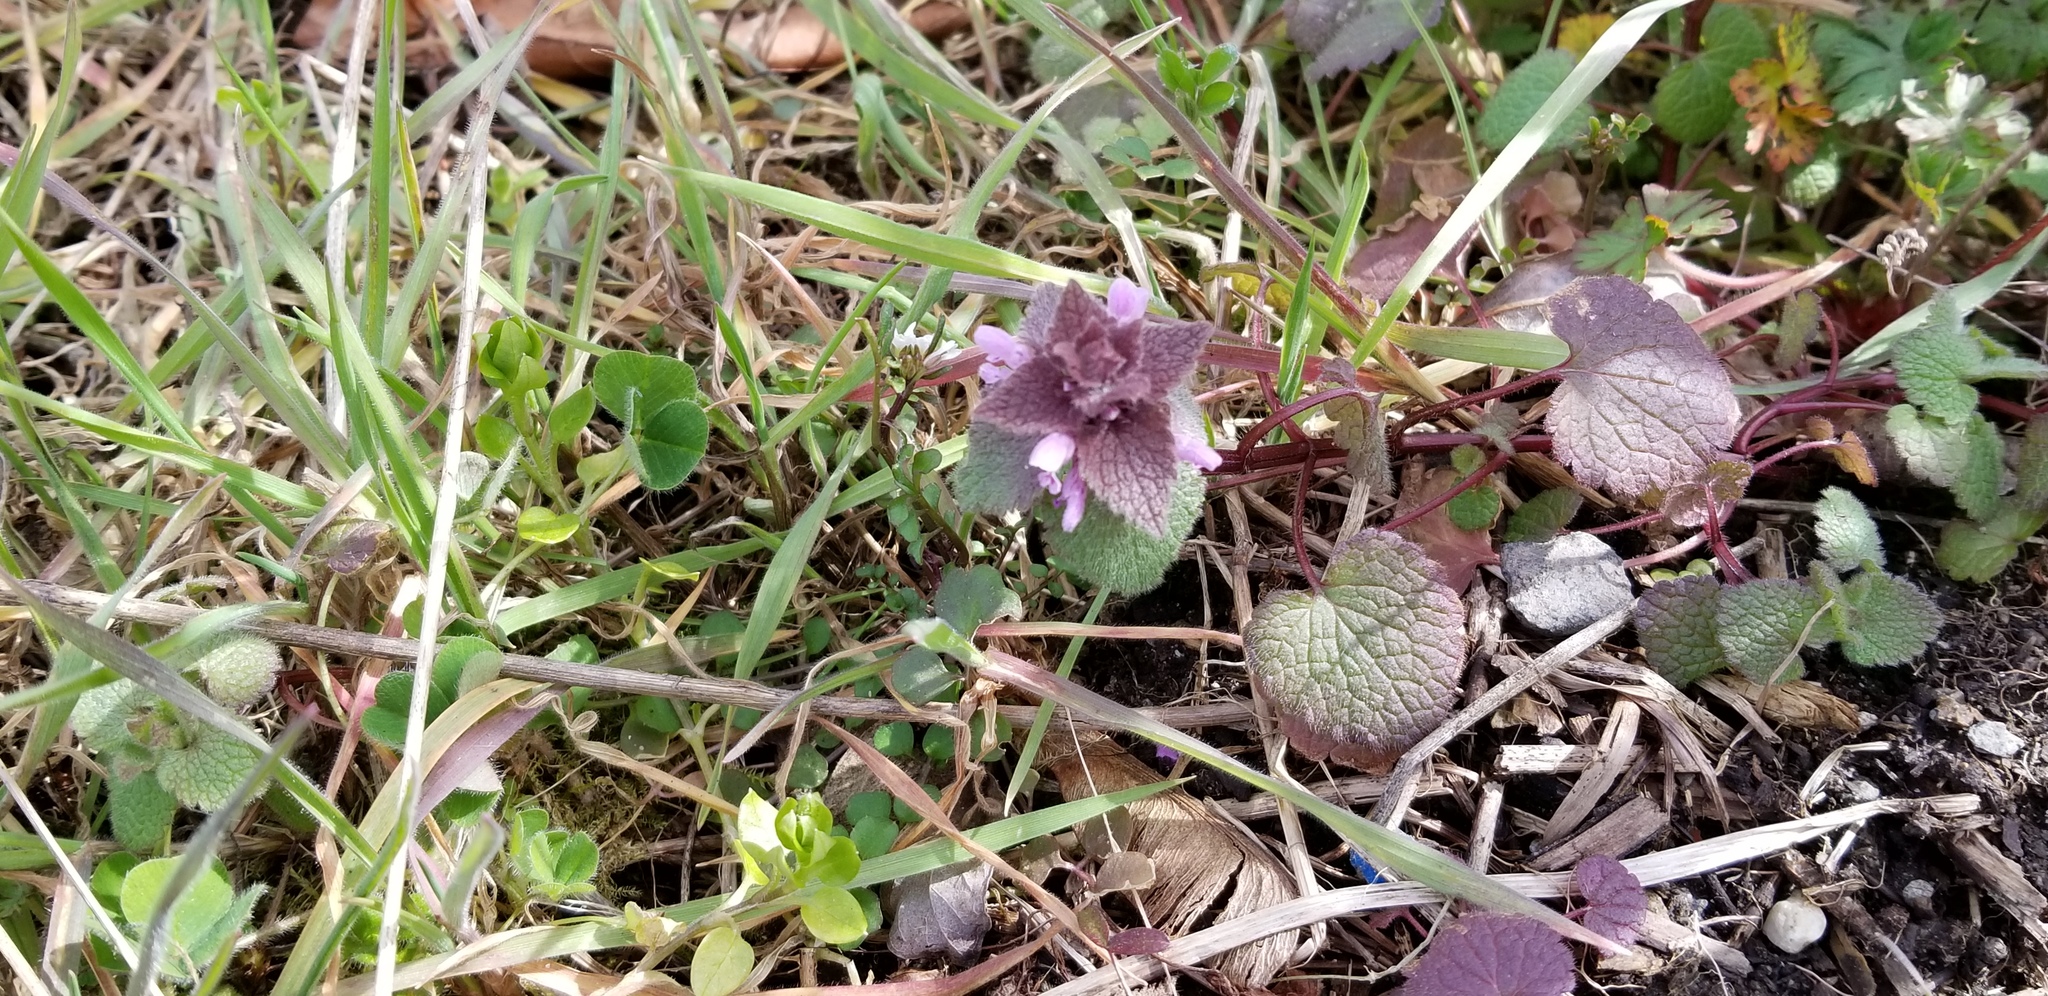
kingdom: Plantae
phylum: Tracheophyta
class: Magnoliopsida
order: Lamiales
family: Lamiaceae
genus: Lamium
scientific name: Lamium purpureum
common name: Red dead-nettle
